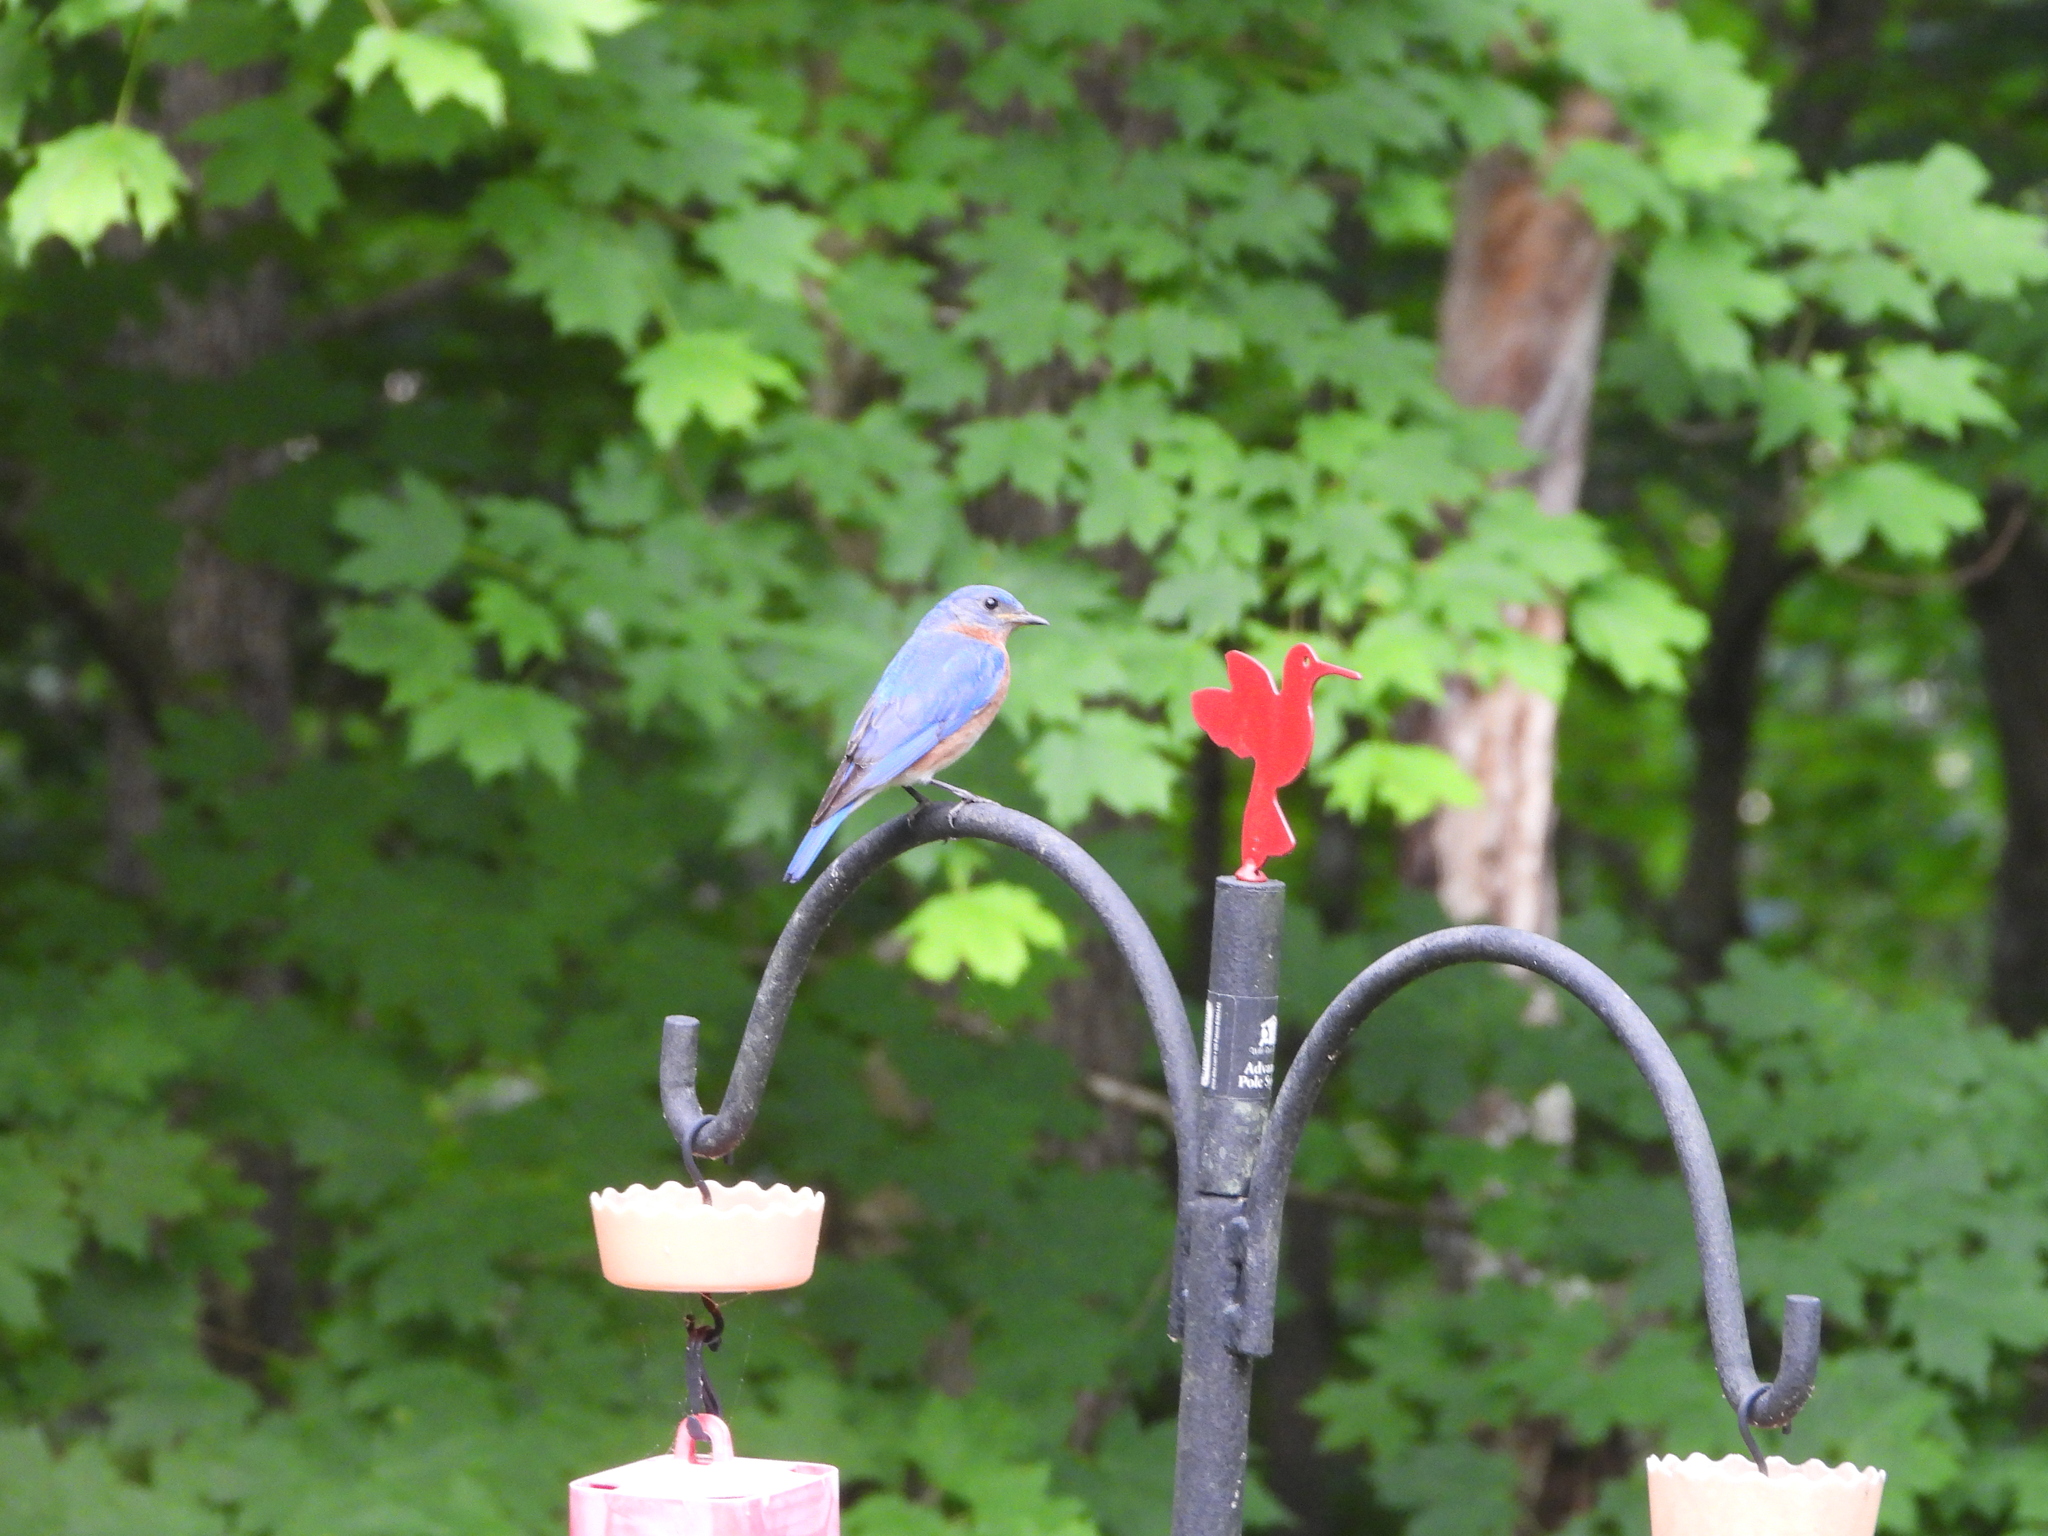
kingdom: Animalia
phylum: Chordata
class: Aves
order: Passeriformes
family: Turdidae
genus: Sialia
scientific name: Sialia sialis
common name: Eastern bluebird
